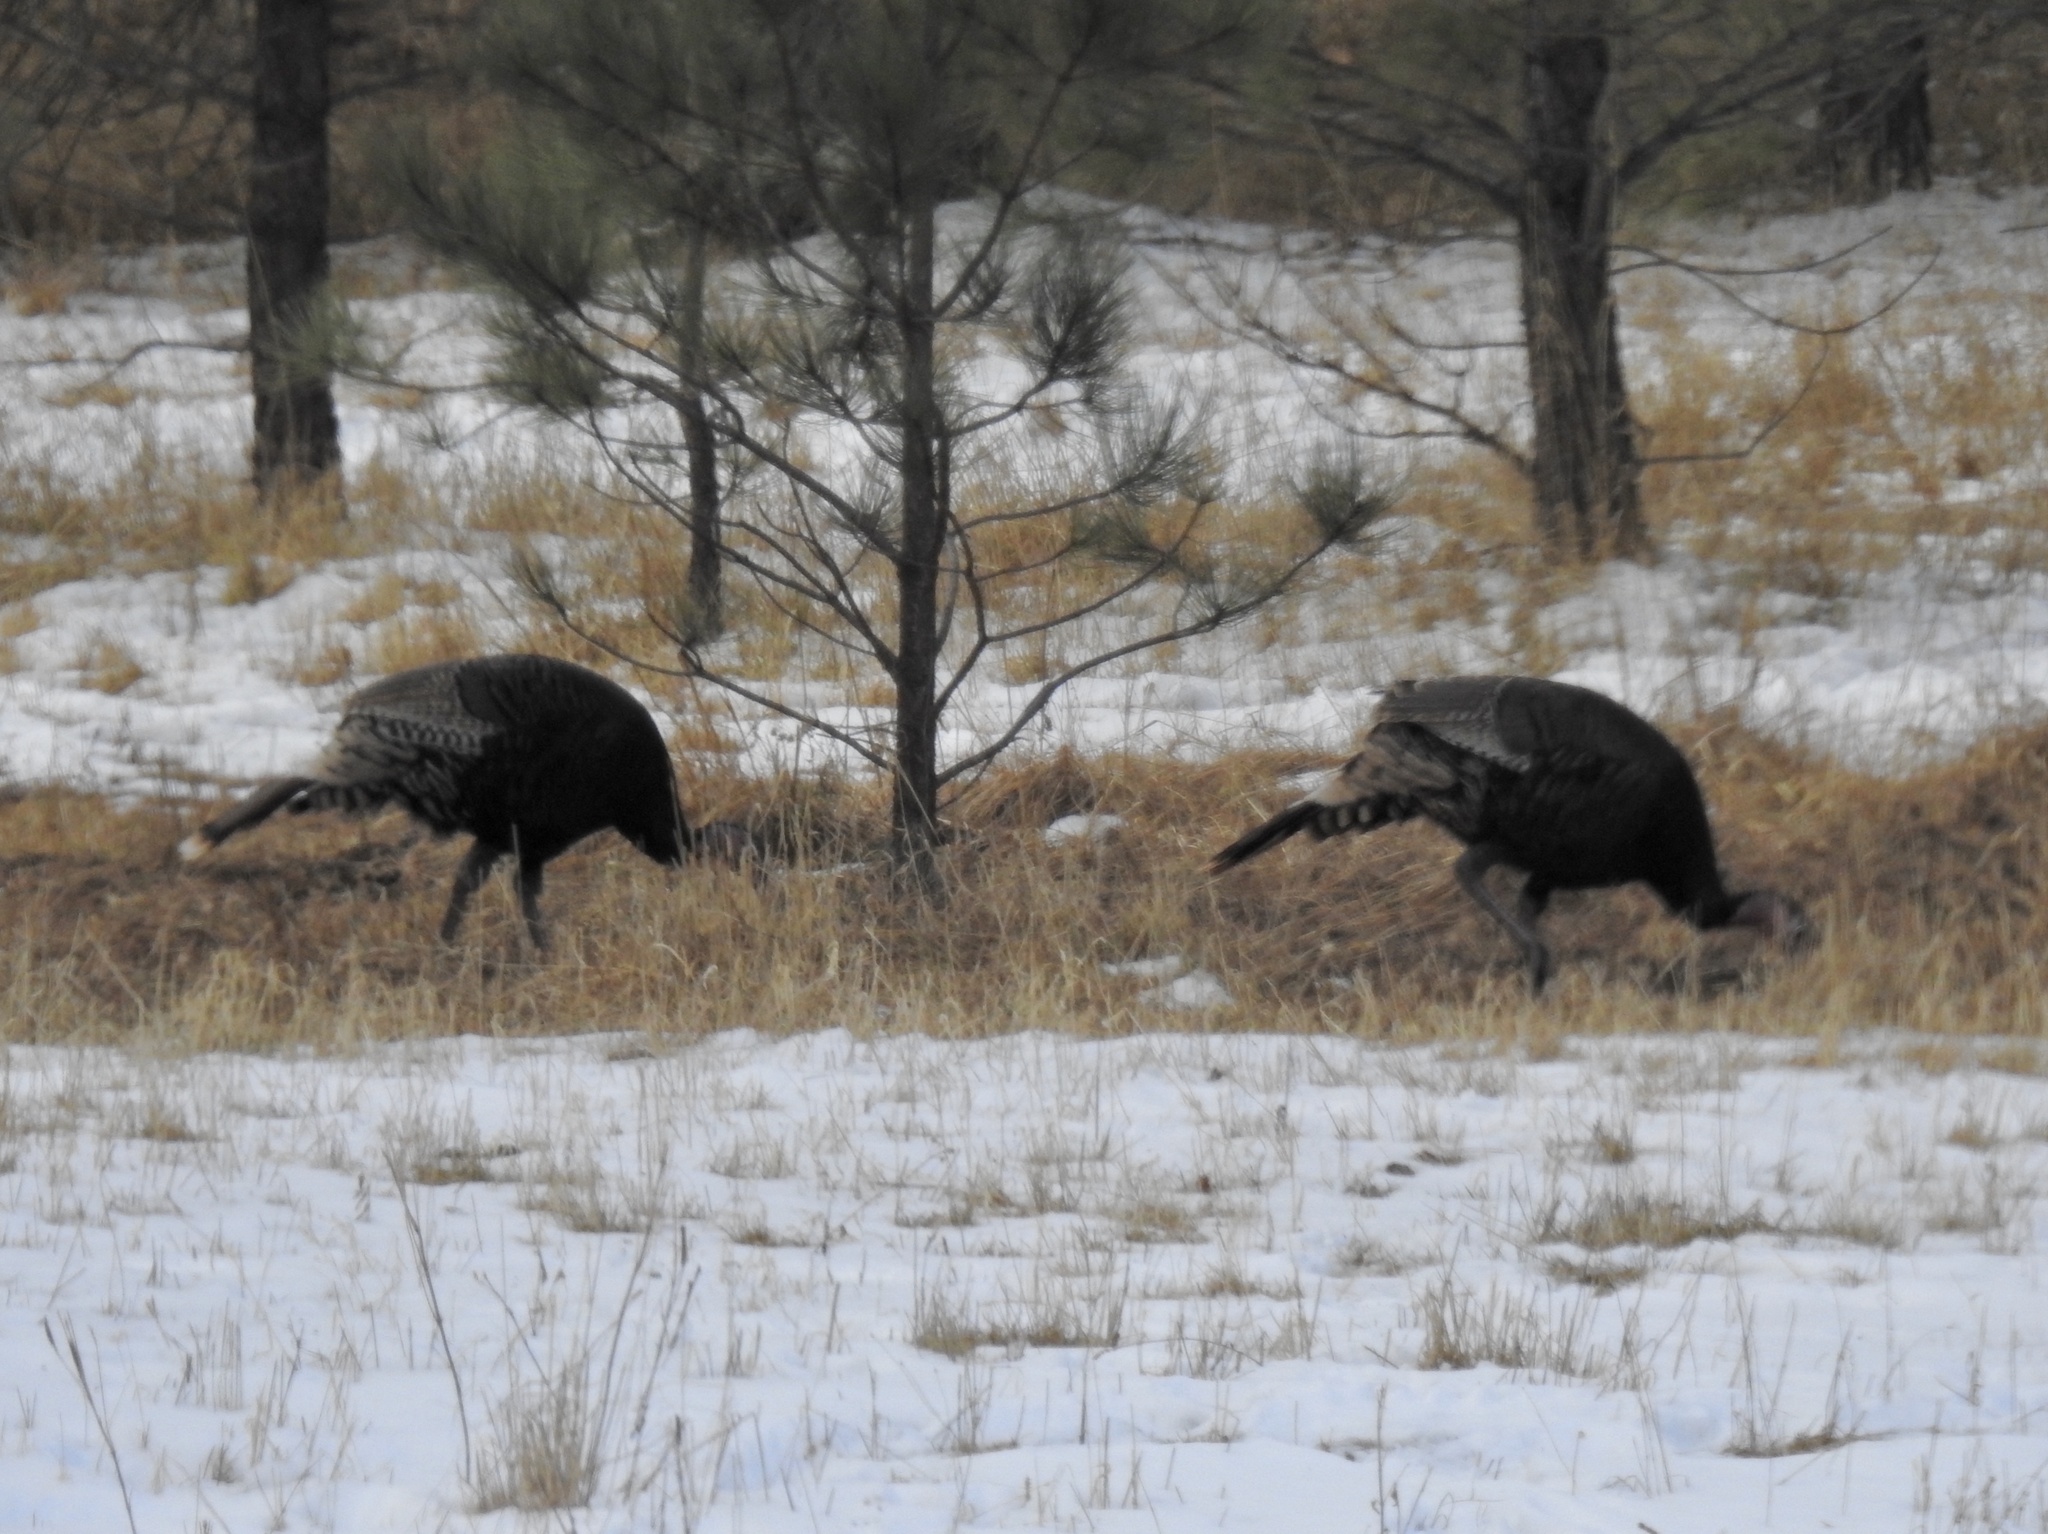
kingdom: Animalia
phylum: Chordata
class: Aves
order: Galliformes
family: Phasianidae
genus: Meleagris
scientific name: Meleagris gallopavo
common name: Wild turkey
